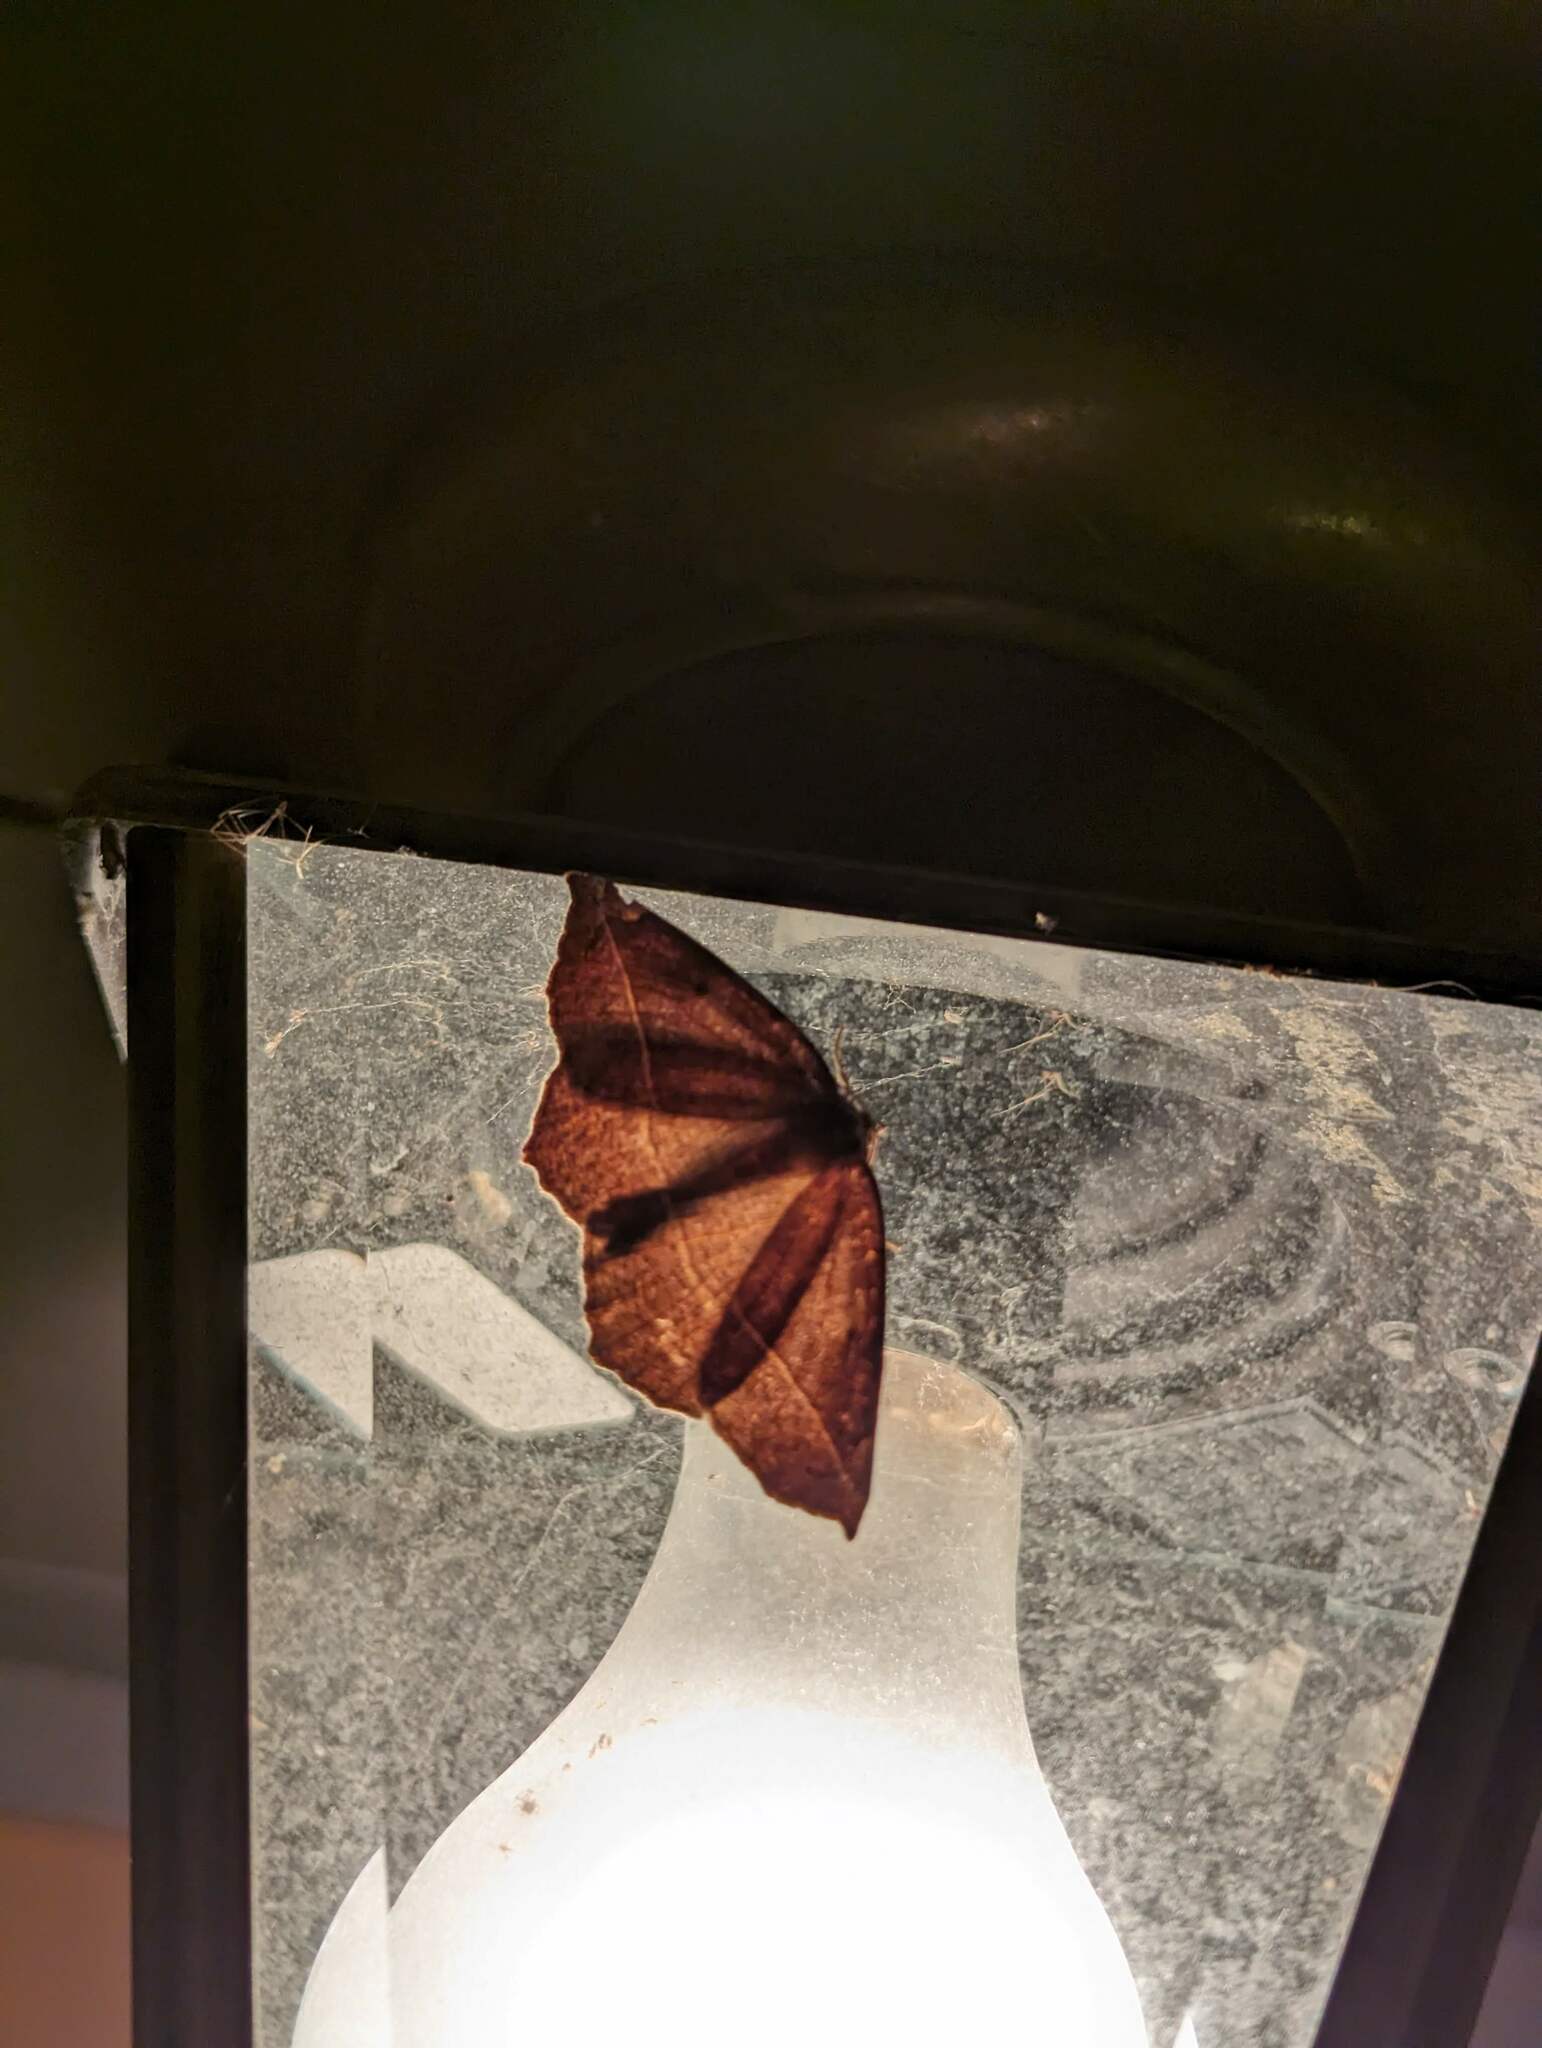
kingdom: Animalia
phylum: Arthropoda
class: Insecta
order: Lepidoptera
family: Geometridae
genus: Eutrapela
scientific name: Eutrapela clemataria
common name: Curved-toothed geometer
